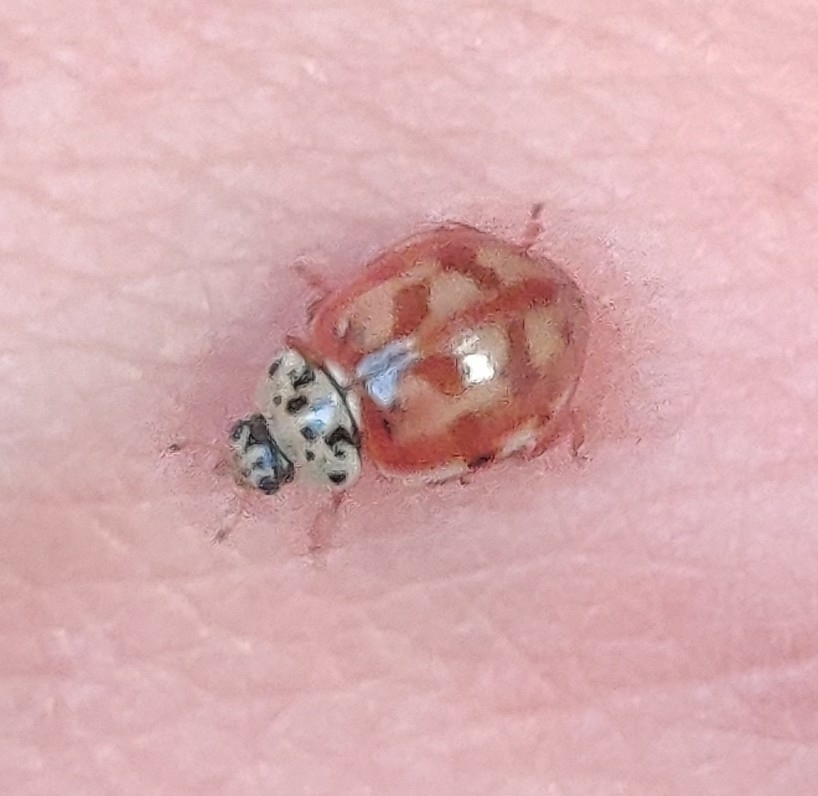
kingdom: Animalia
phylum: Arthropoda
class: Insecta
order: Coleoptera
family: Coccinellidae
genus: Harmonia
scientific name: Harmonia quadripunctata
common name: Cream-streaked ladybird
